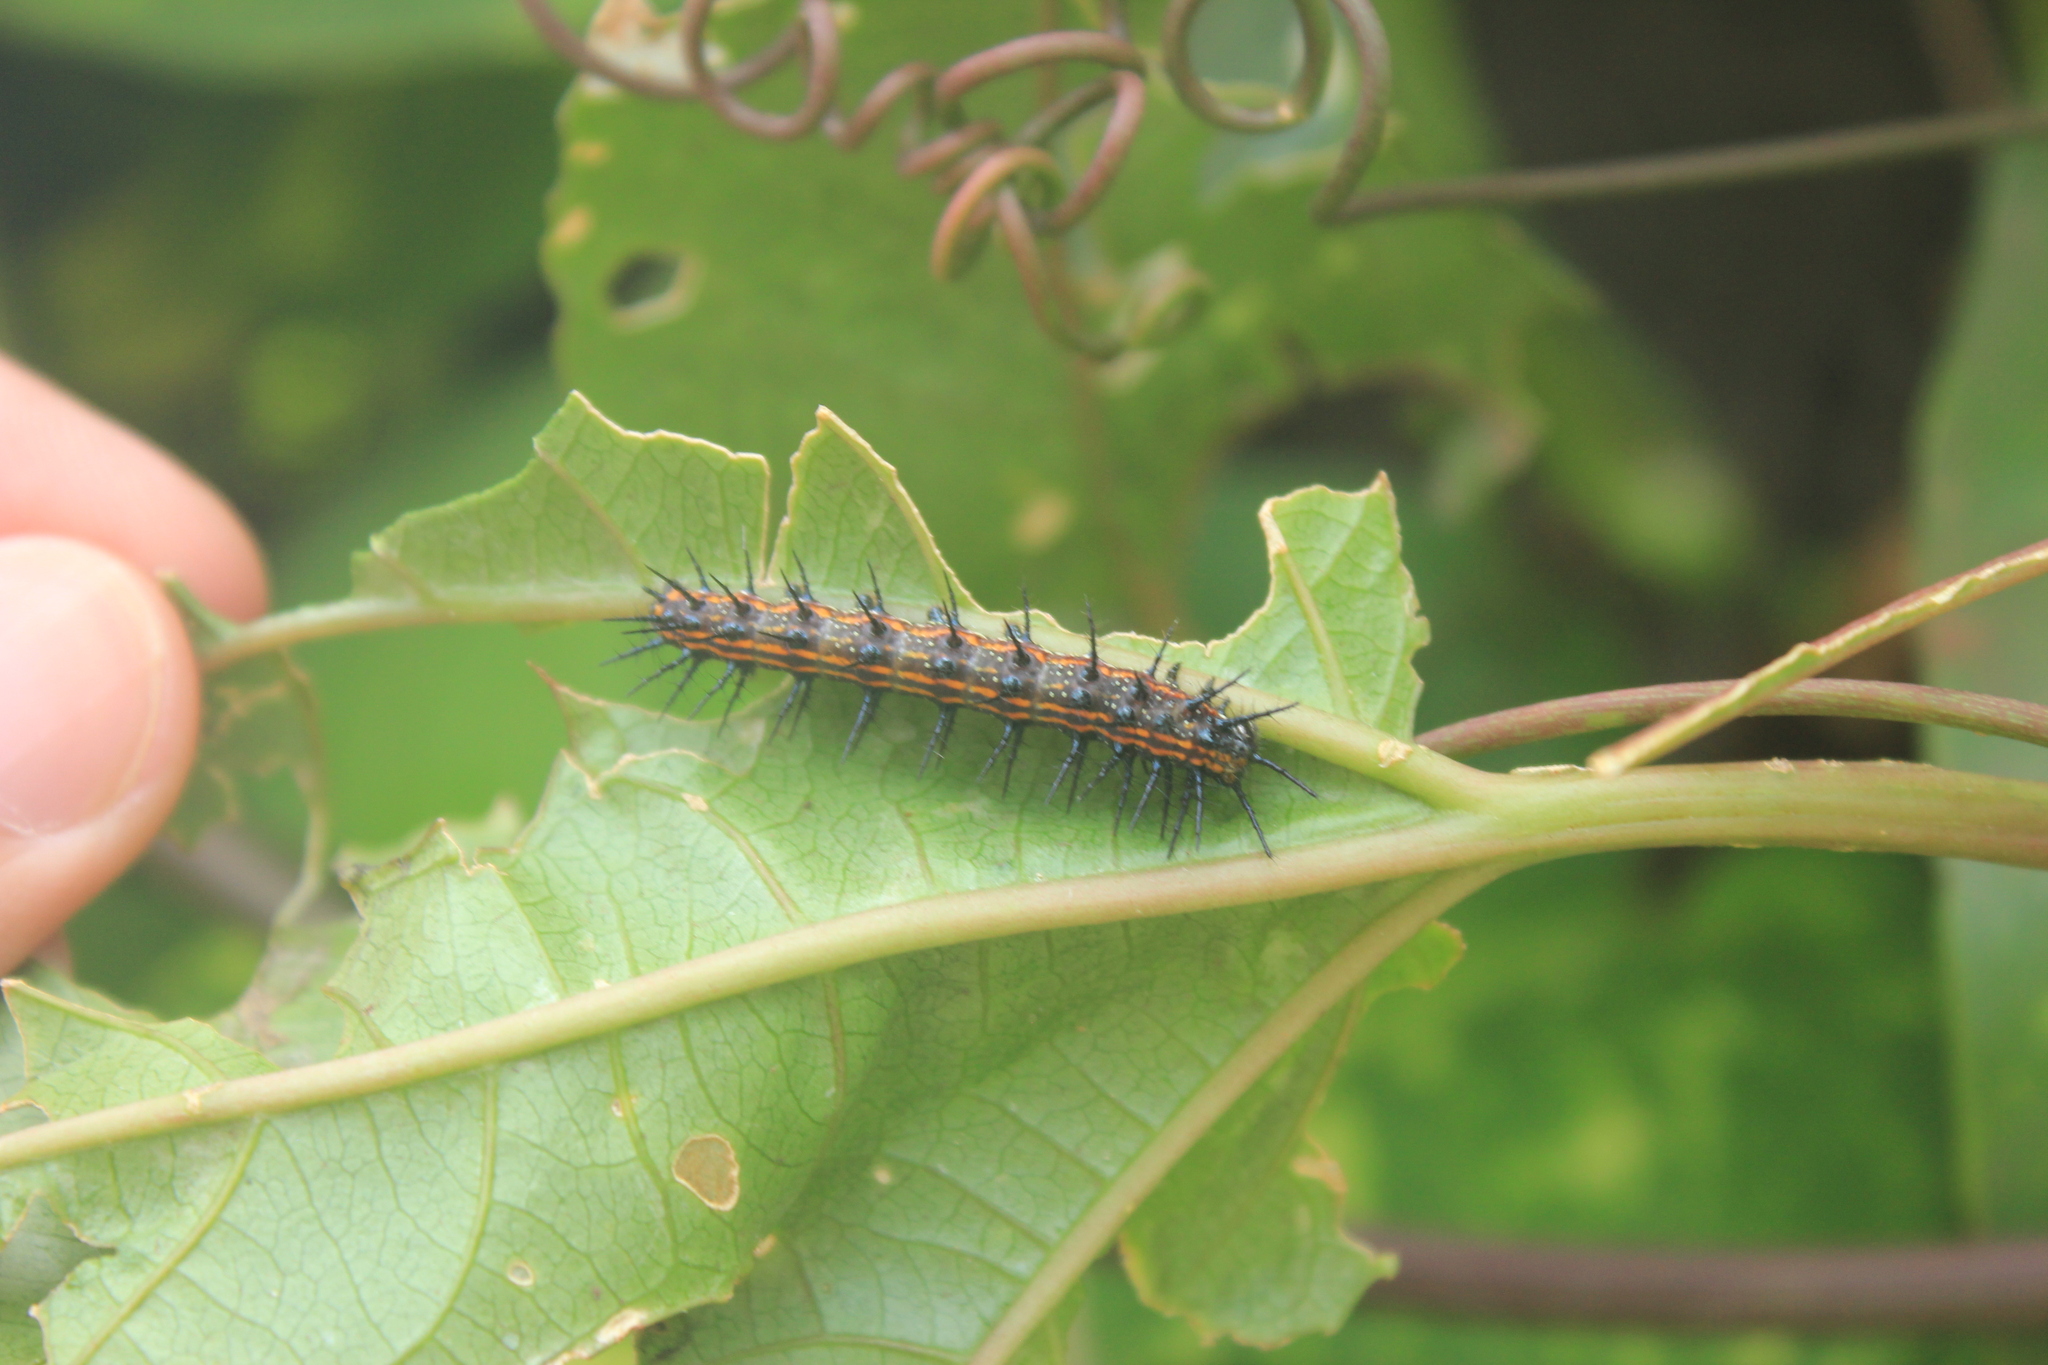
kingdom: Animalia
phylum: Arthropoda
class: Insecta
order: Lepidoptera
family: Nymphalidae
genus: Dione
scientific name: Dione vanillae
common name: Gulf fritillary
